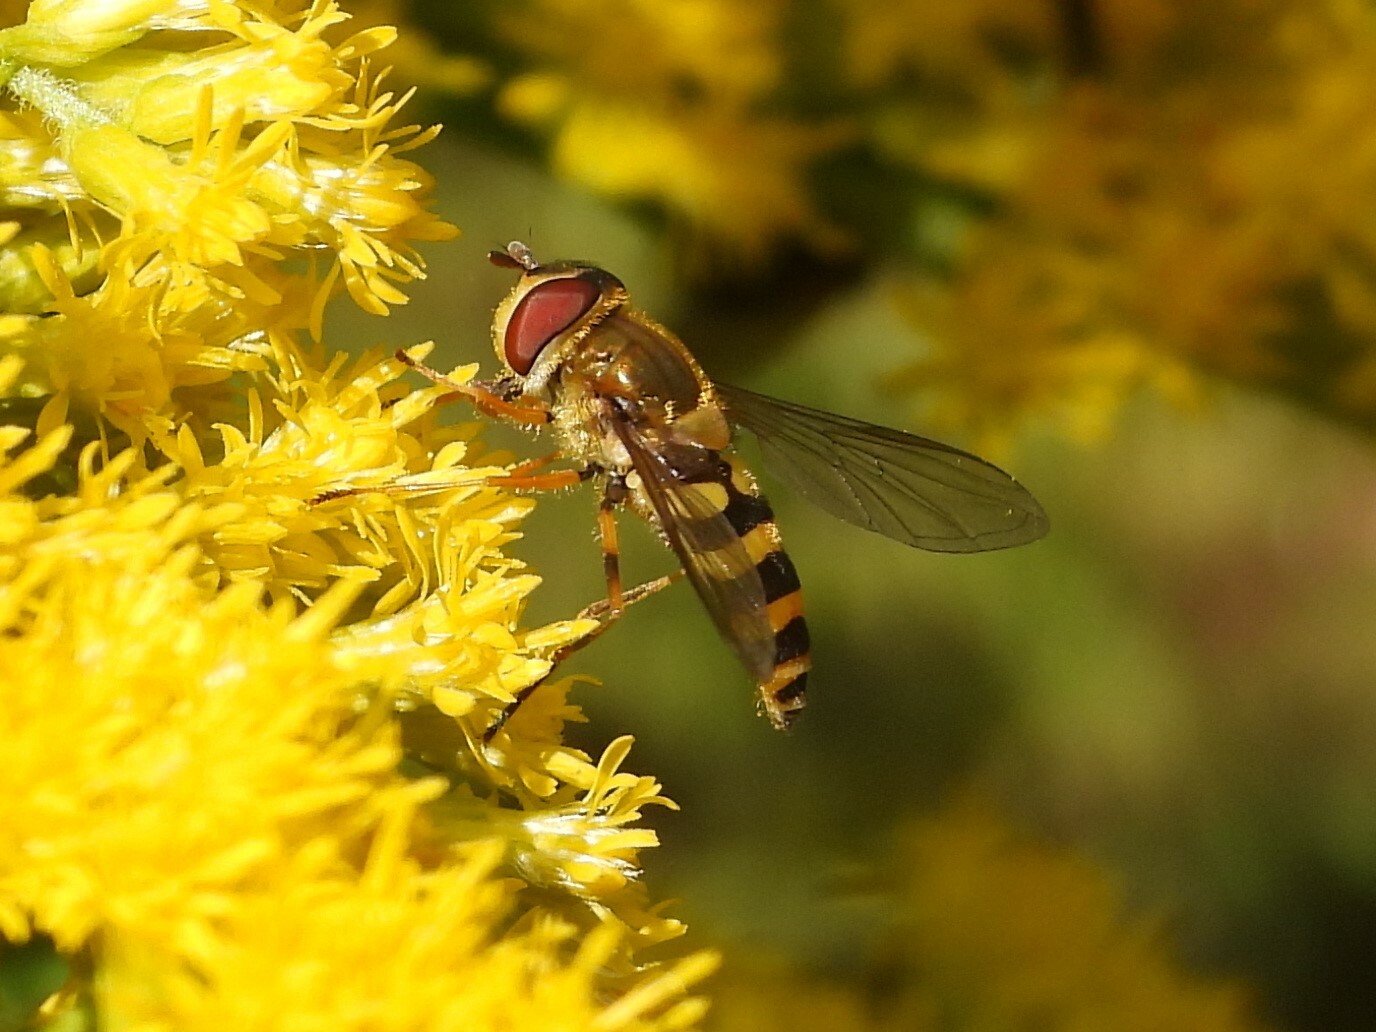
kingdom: Animalia
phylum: Arthropoda
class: Insecta
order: Diptera
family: Syrphidae
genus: Syrphus
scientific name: Syrphus rectus
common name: Yellow-legged flower fly
